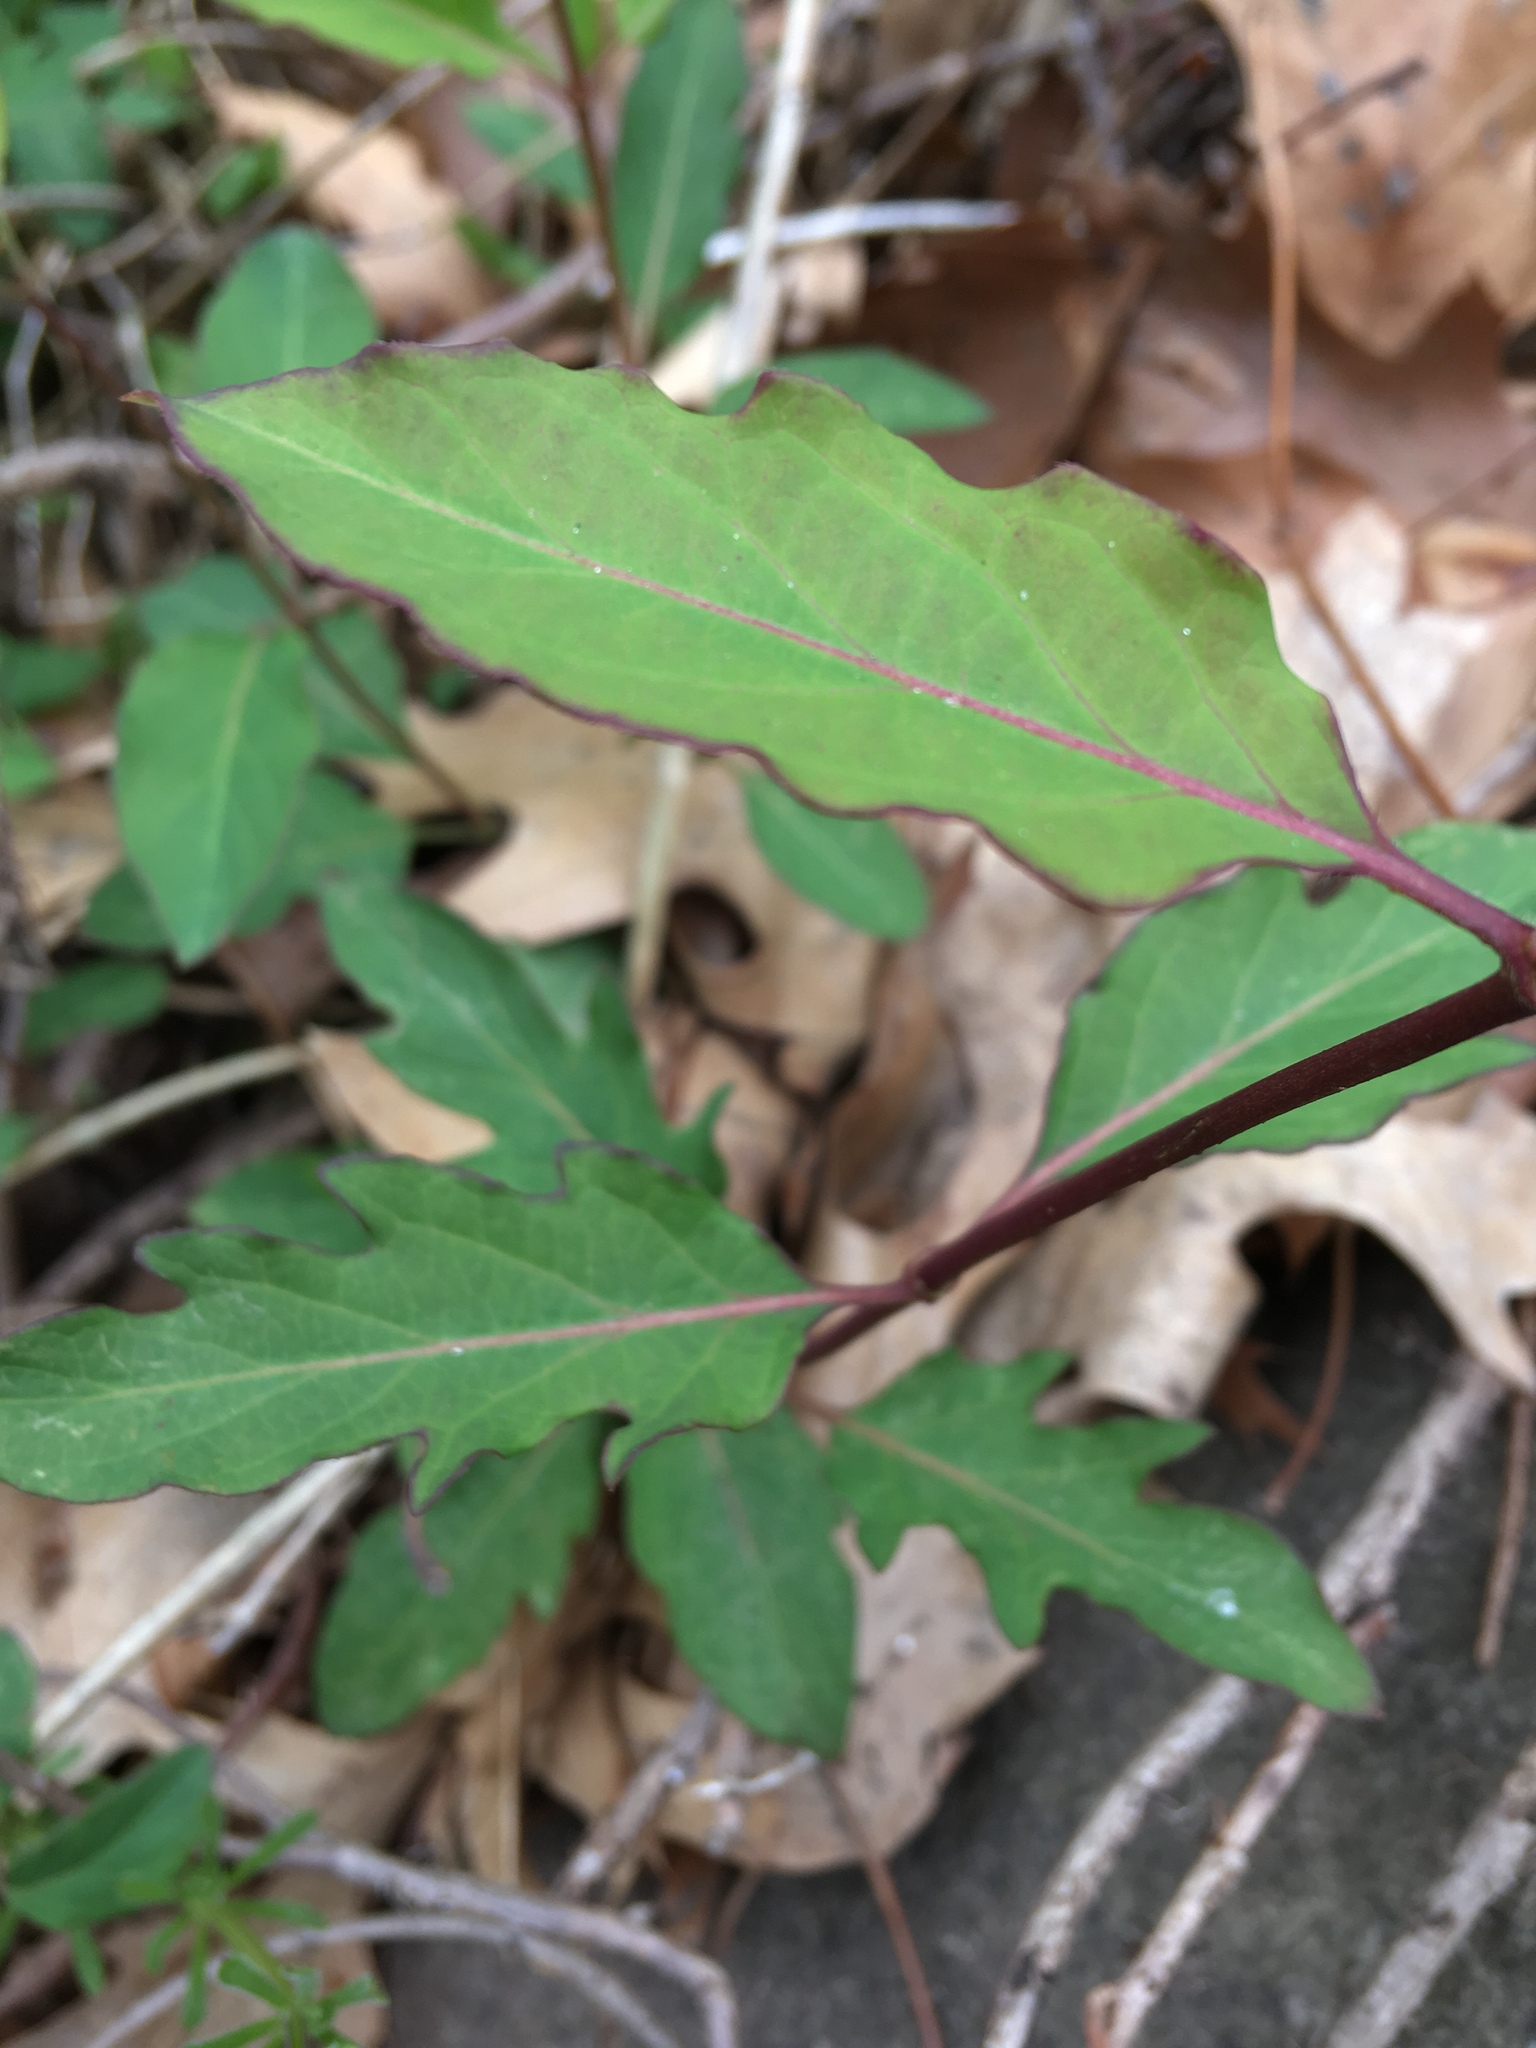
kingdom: Plantae
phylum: Tracheophyta
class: Magnoliopsida
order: Dipsacales
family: Caprifoliaceae
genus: Lonicera
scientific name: Lonicera japonica
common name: Japanese honeysuckle
